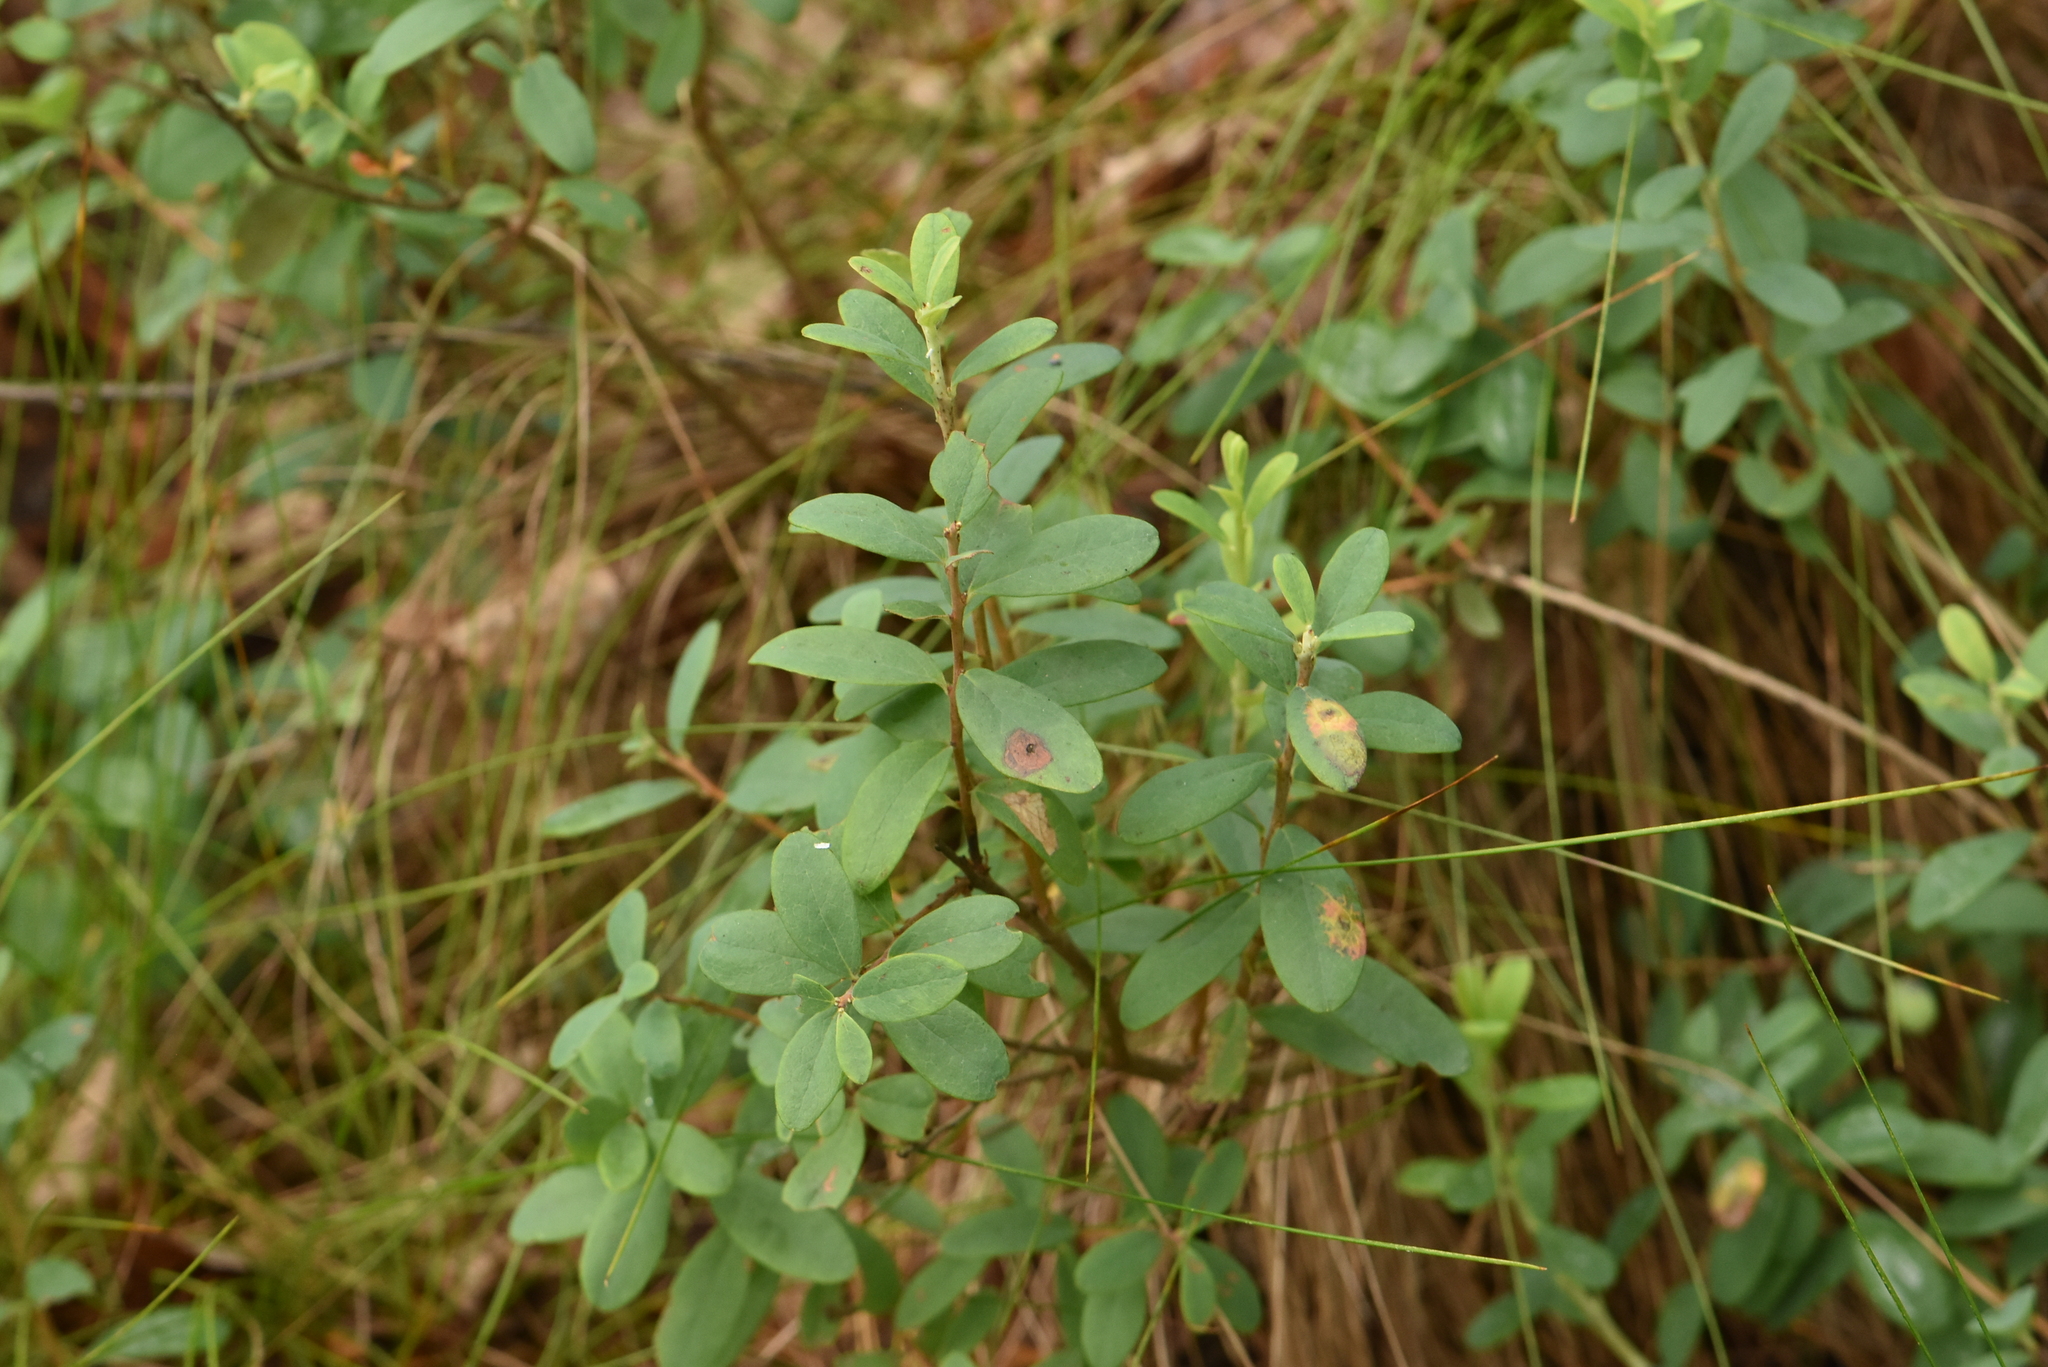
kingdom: Plantae
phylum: Tracheophyta
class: Magnoliopsida
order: Ericales
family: Ericaceae
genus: Vaccinium
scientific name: Vaccinium uliginosum
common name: Bog bilberry
